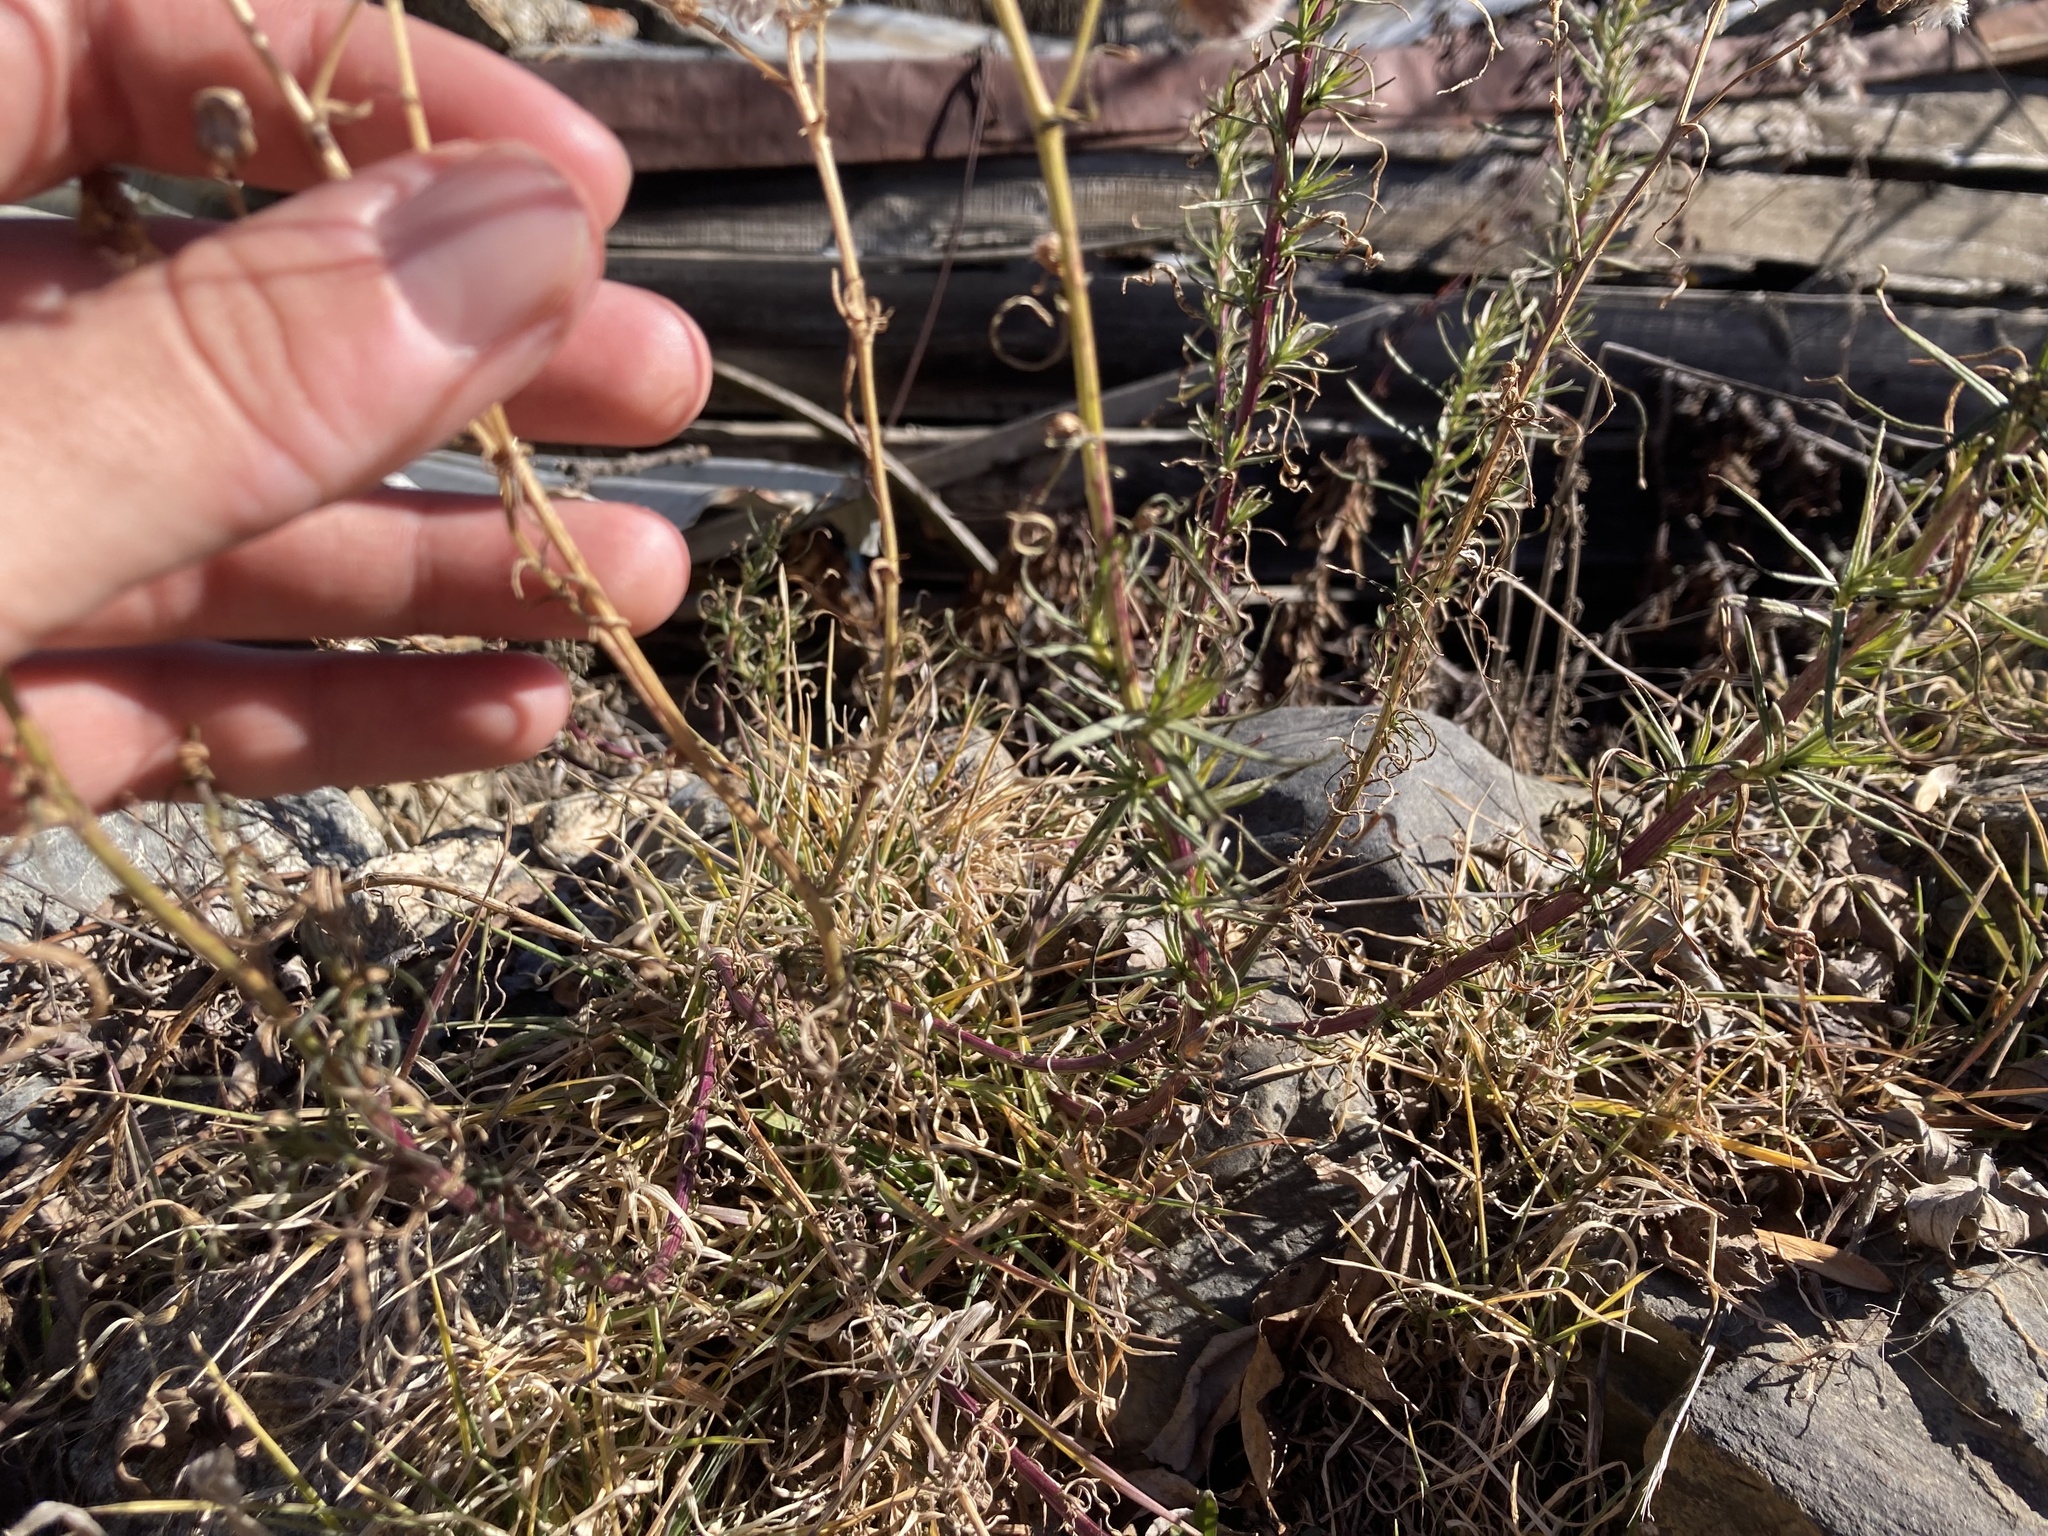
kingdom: Plantae
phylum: Tracheophyta
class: Magnoliopsida
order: Asterales
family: Asteraceae
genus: Senecio
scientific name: Senecio inaequidens
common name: Narrow-leaved ragwort
